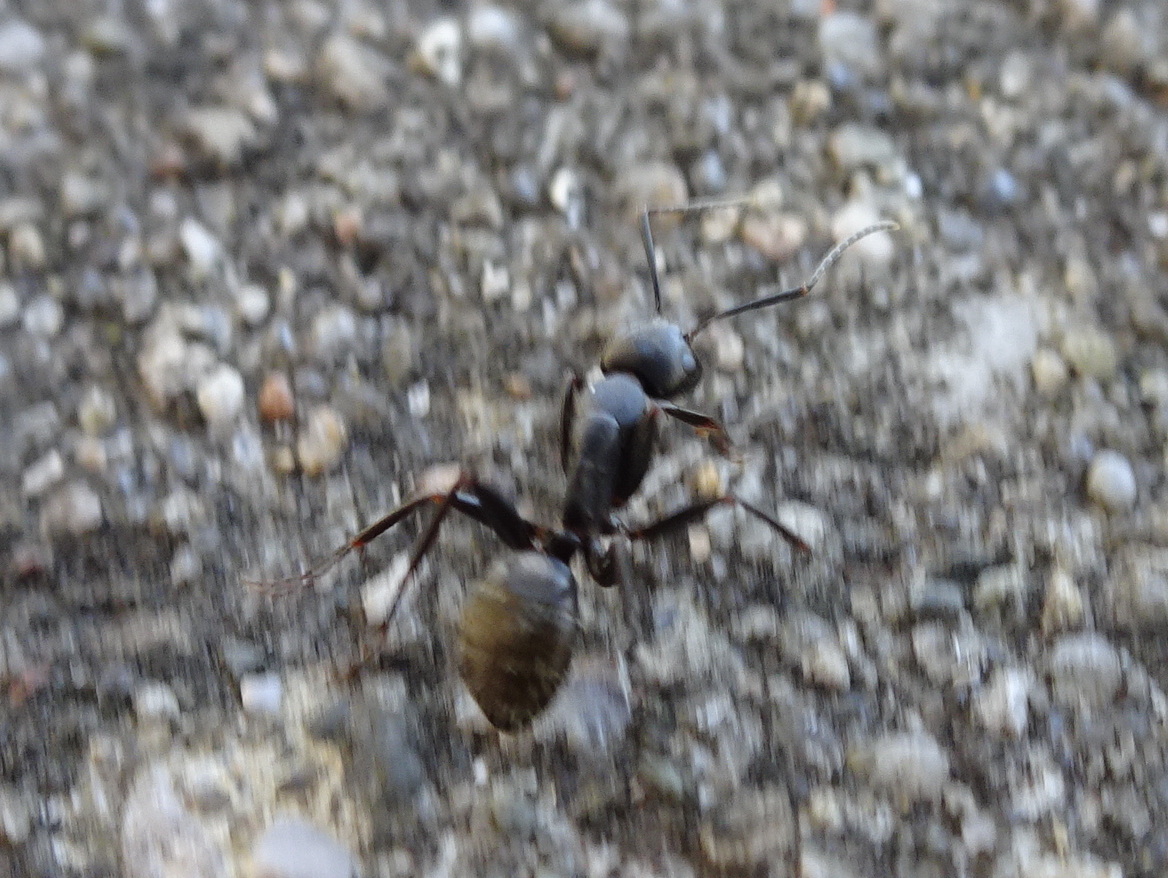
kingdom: Animalia
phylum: Arthropoda
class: Insecta
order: Hymenoptera
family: Formicidae
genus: Camponotus
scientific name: Camponotus pennsylvanicus
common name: Black carpenter ant
